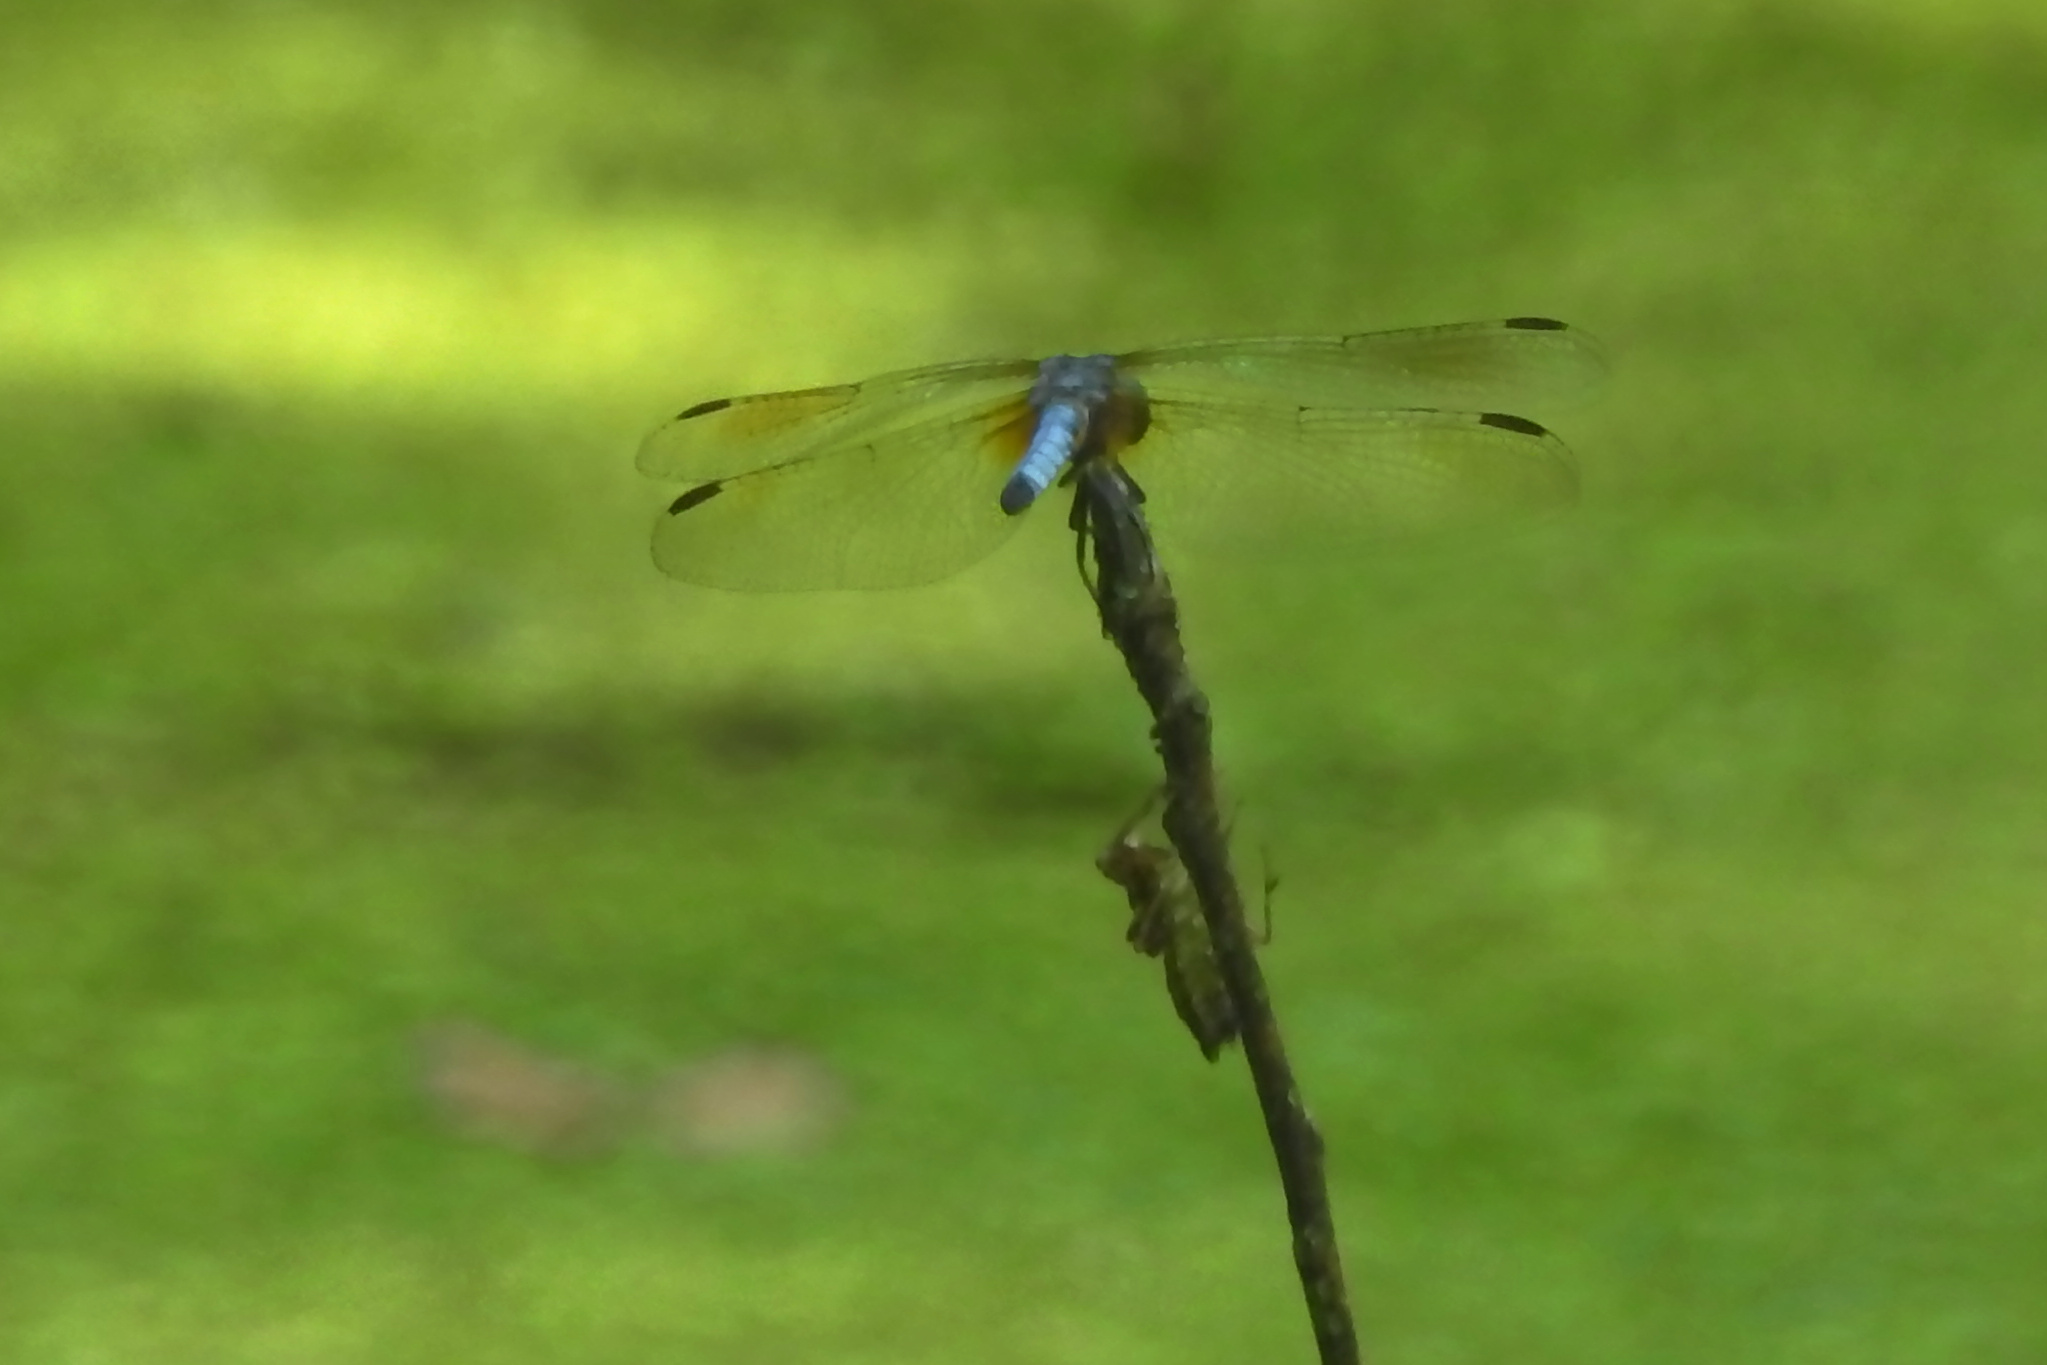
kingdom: Animalia
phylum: Arthropoda
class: Insecta
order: Odonata
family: Libellulidae
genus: Pachydiplax
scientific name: Pachydiplax longipennis
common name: Blue dasher
